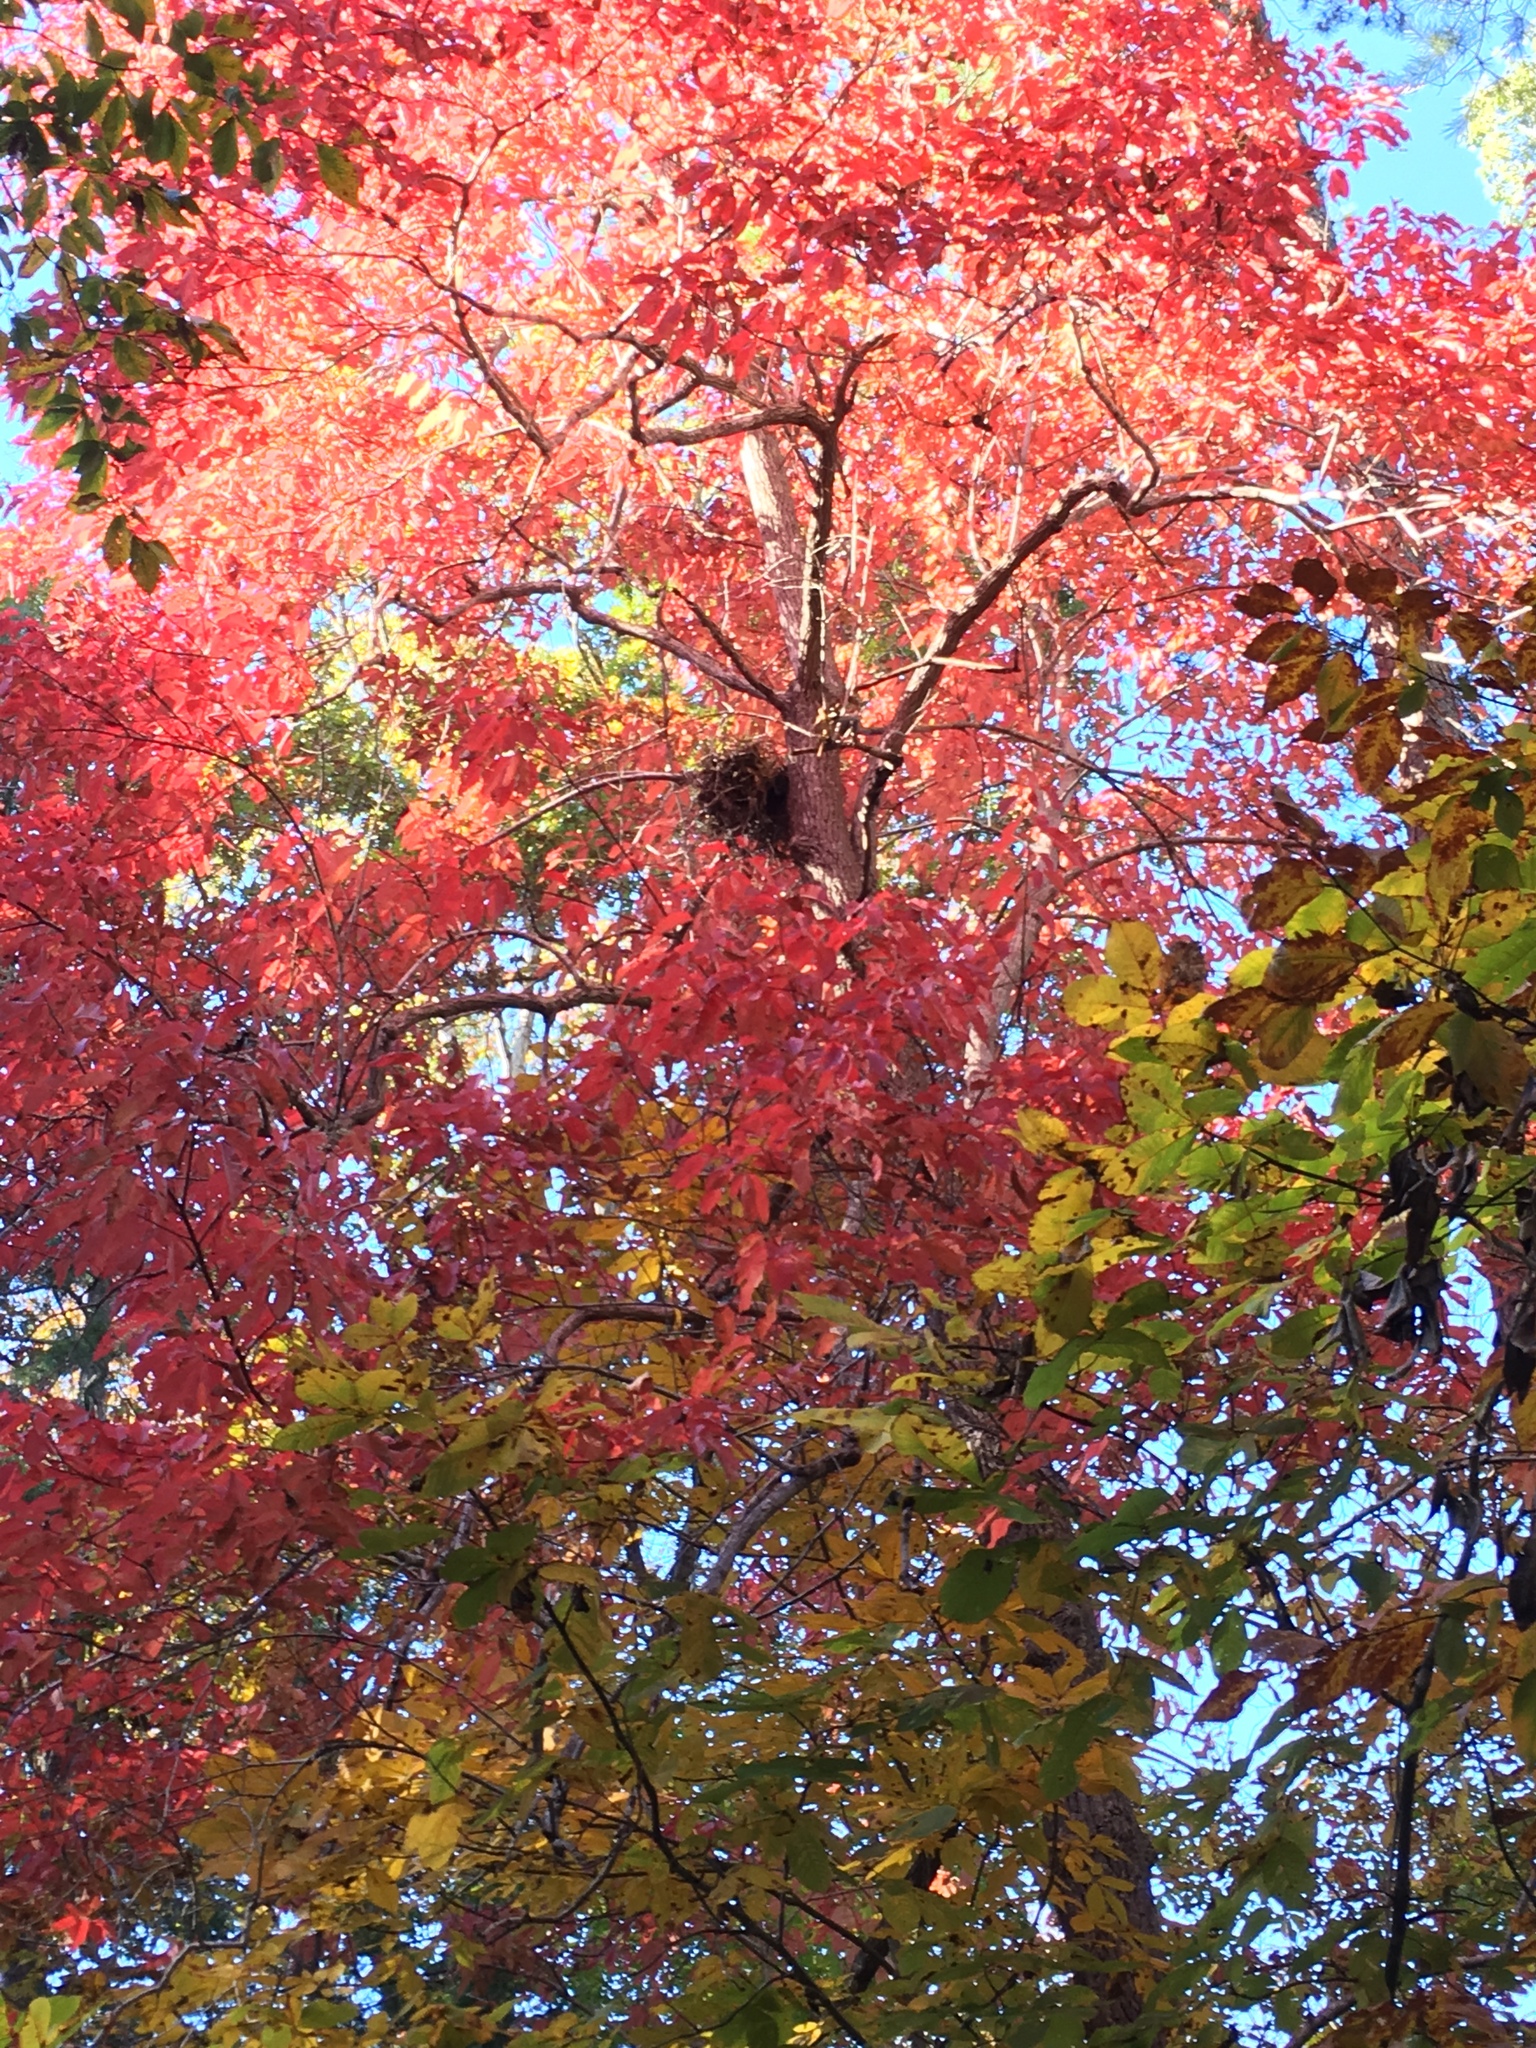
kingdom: Plantae
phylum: Tracheophyta
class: Magnoliopsida
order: Ericales
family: Ericaceae
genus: Oxydendrum
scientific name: Oxydendrum arboreum
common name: Sourwood
